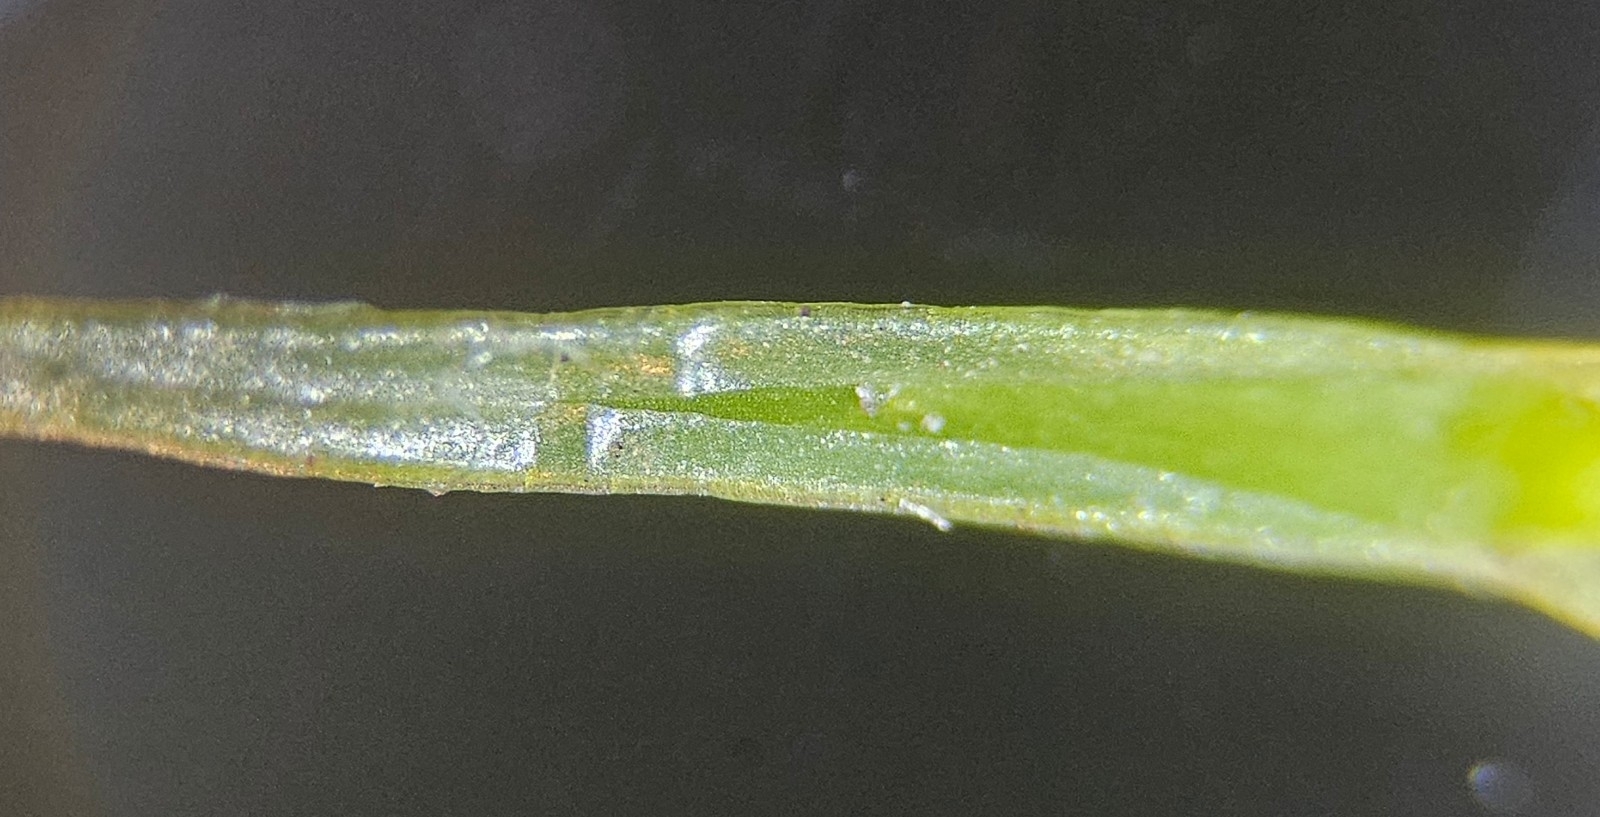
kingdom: Plantae
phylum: Bryophyta
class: Polytrichopsida
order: Polytrichales
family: Polytrichaceae
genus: Polytrichum
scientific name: Polytrichum strictum
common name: Bog haircap moss
